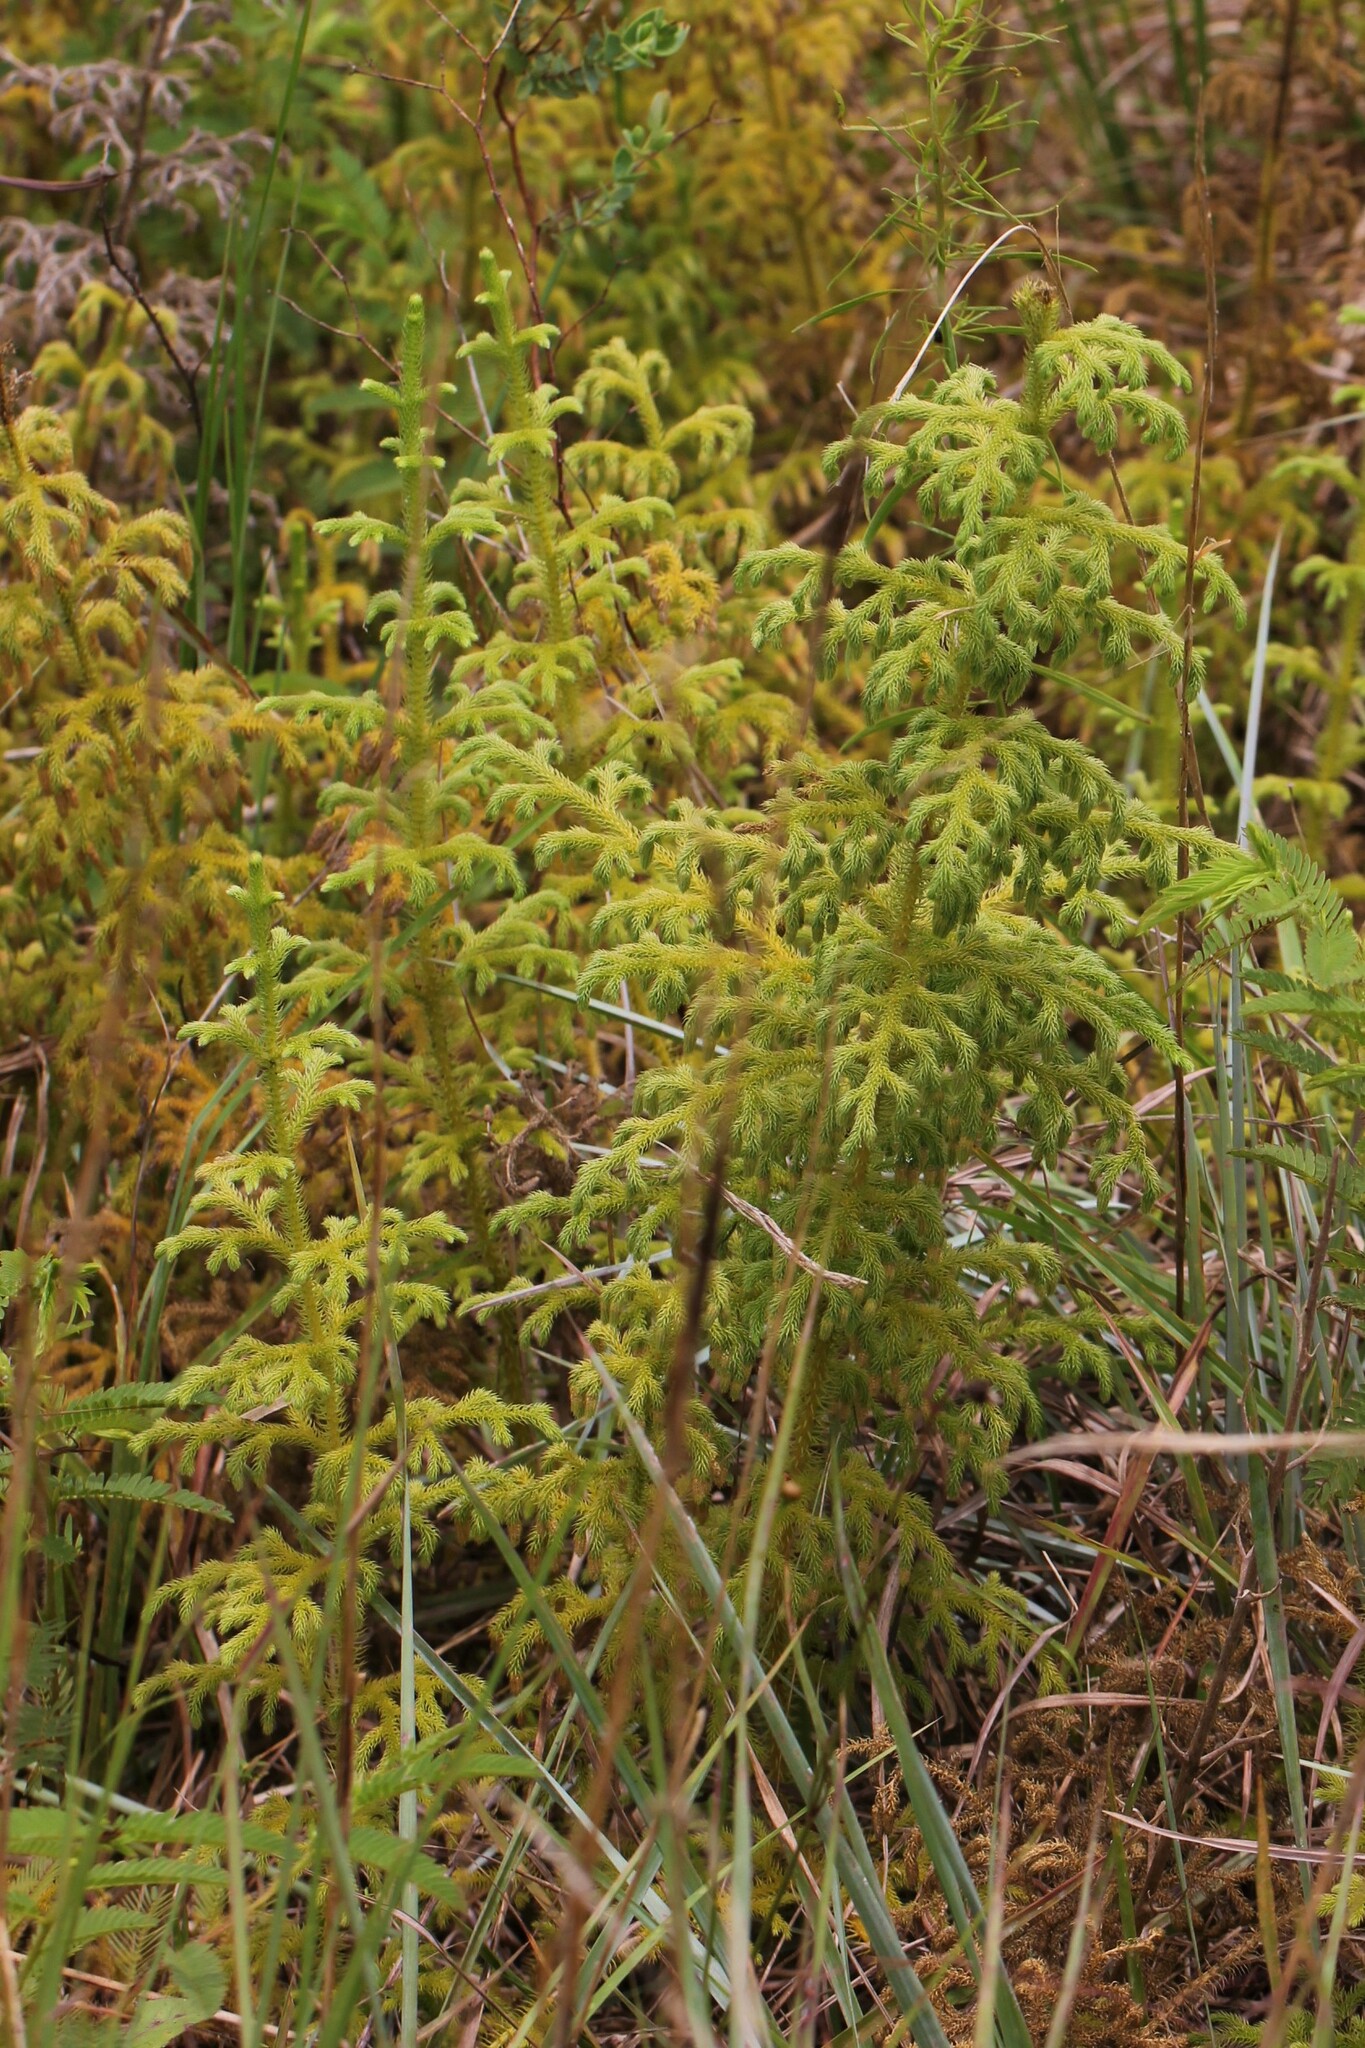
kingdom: Plantae
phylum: Tracheophyta
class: Lycopodiopsida
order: Lycopodiales
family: Lycopodiaceae
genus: Palhinhaea
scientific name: Palhinhaea cernua
